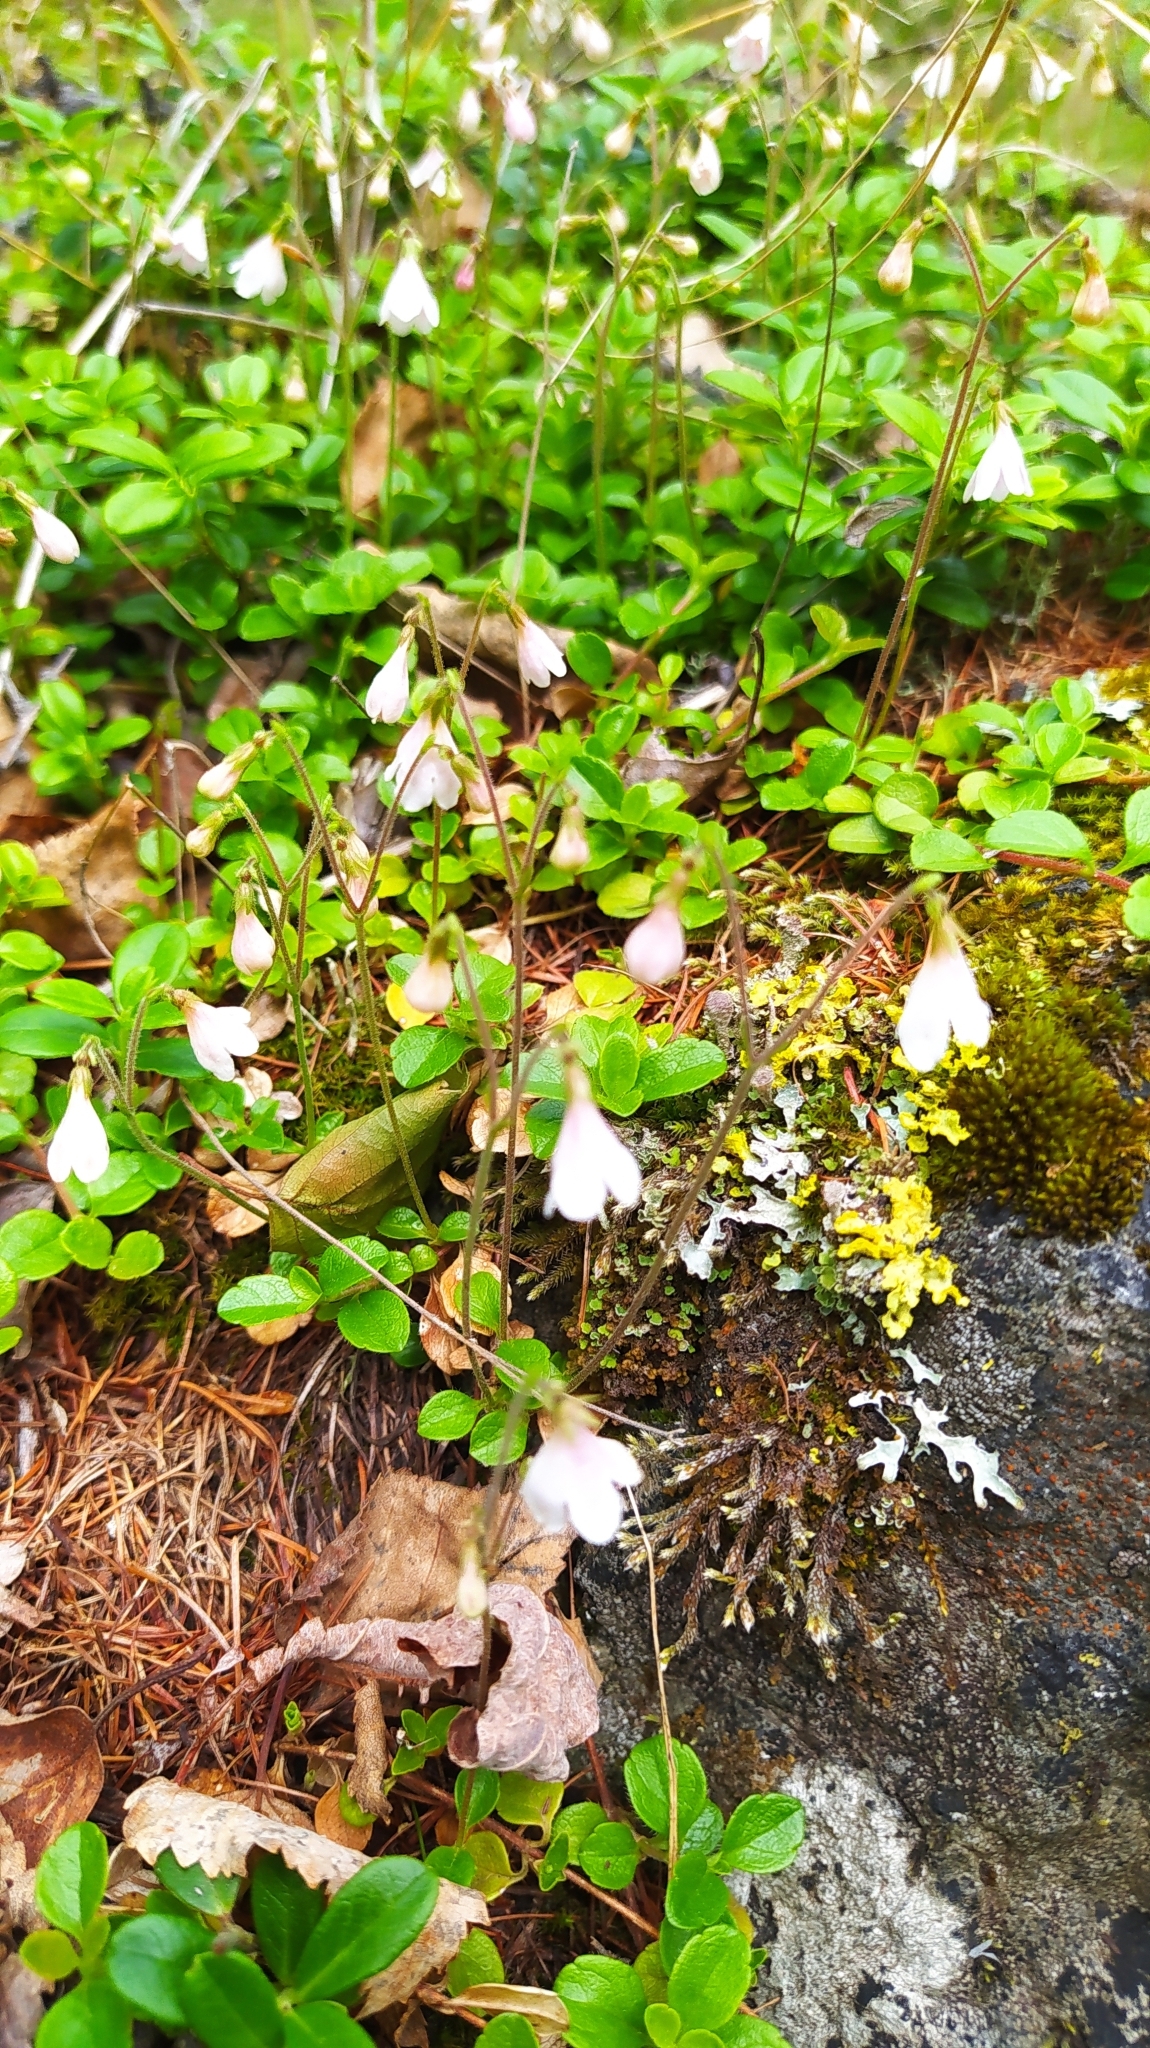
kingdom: Plantae
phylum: Tracheophyta
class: Magnoliopsida
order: Dipsacales
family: Caprifoliaceae
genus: Linnaea
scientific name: Linnaea borealis
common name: Twinflower
